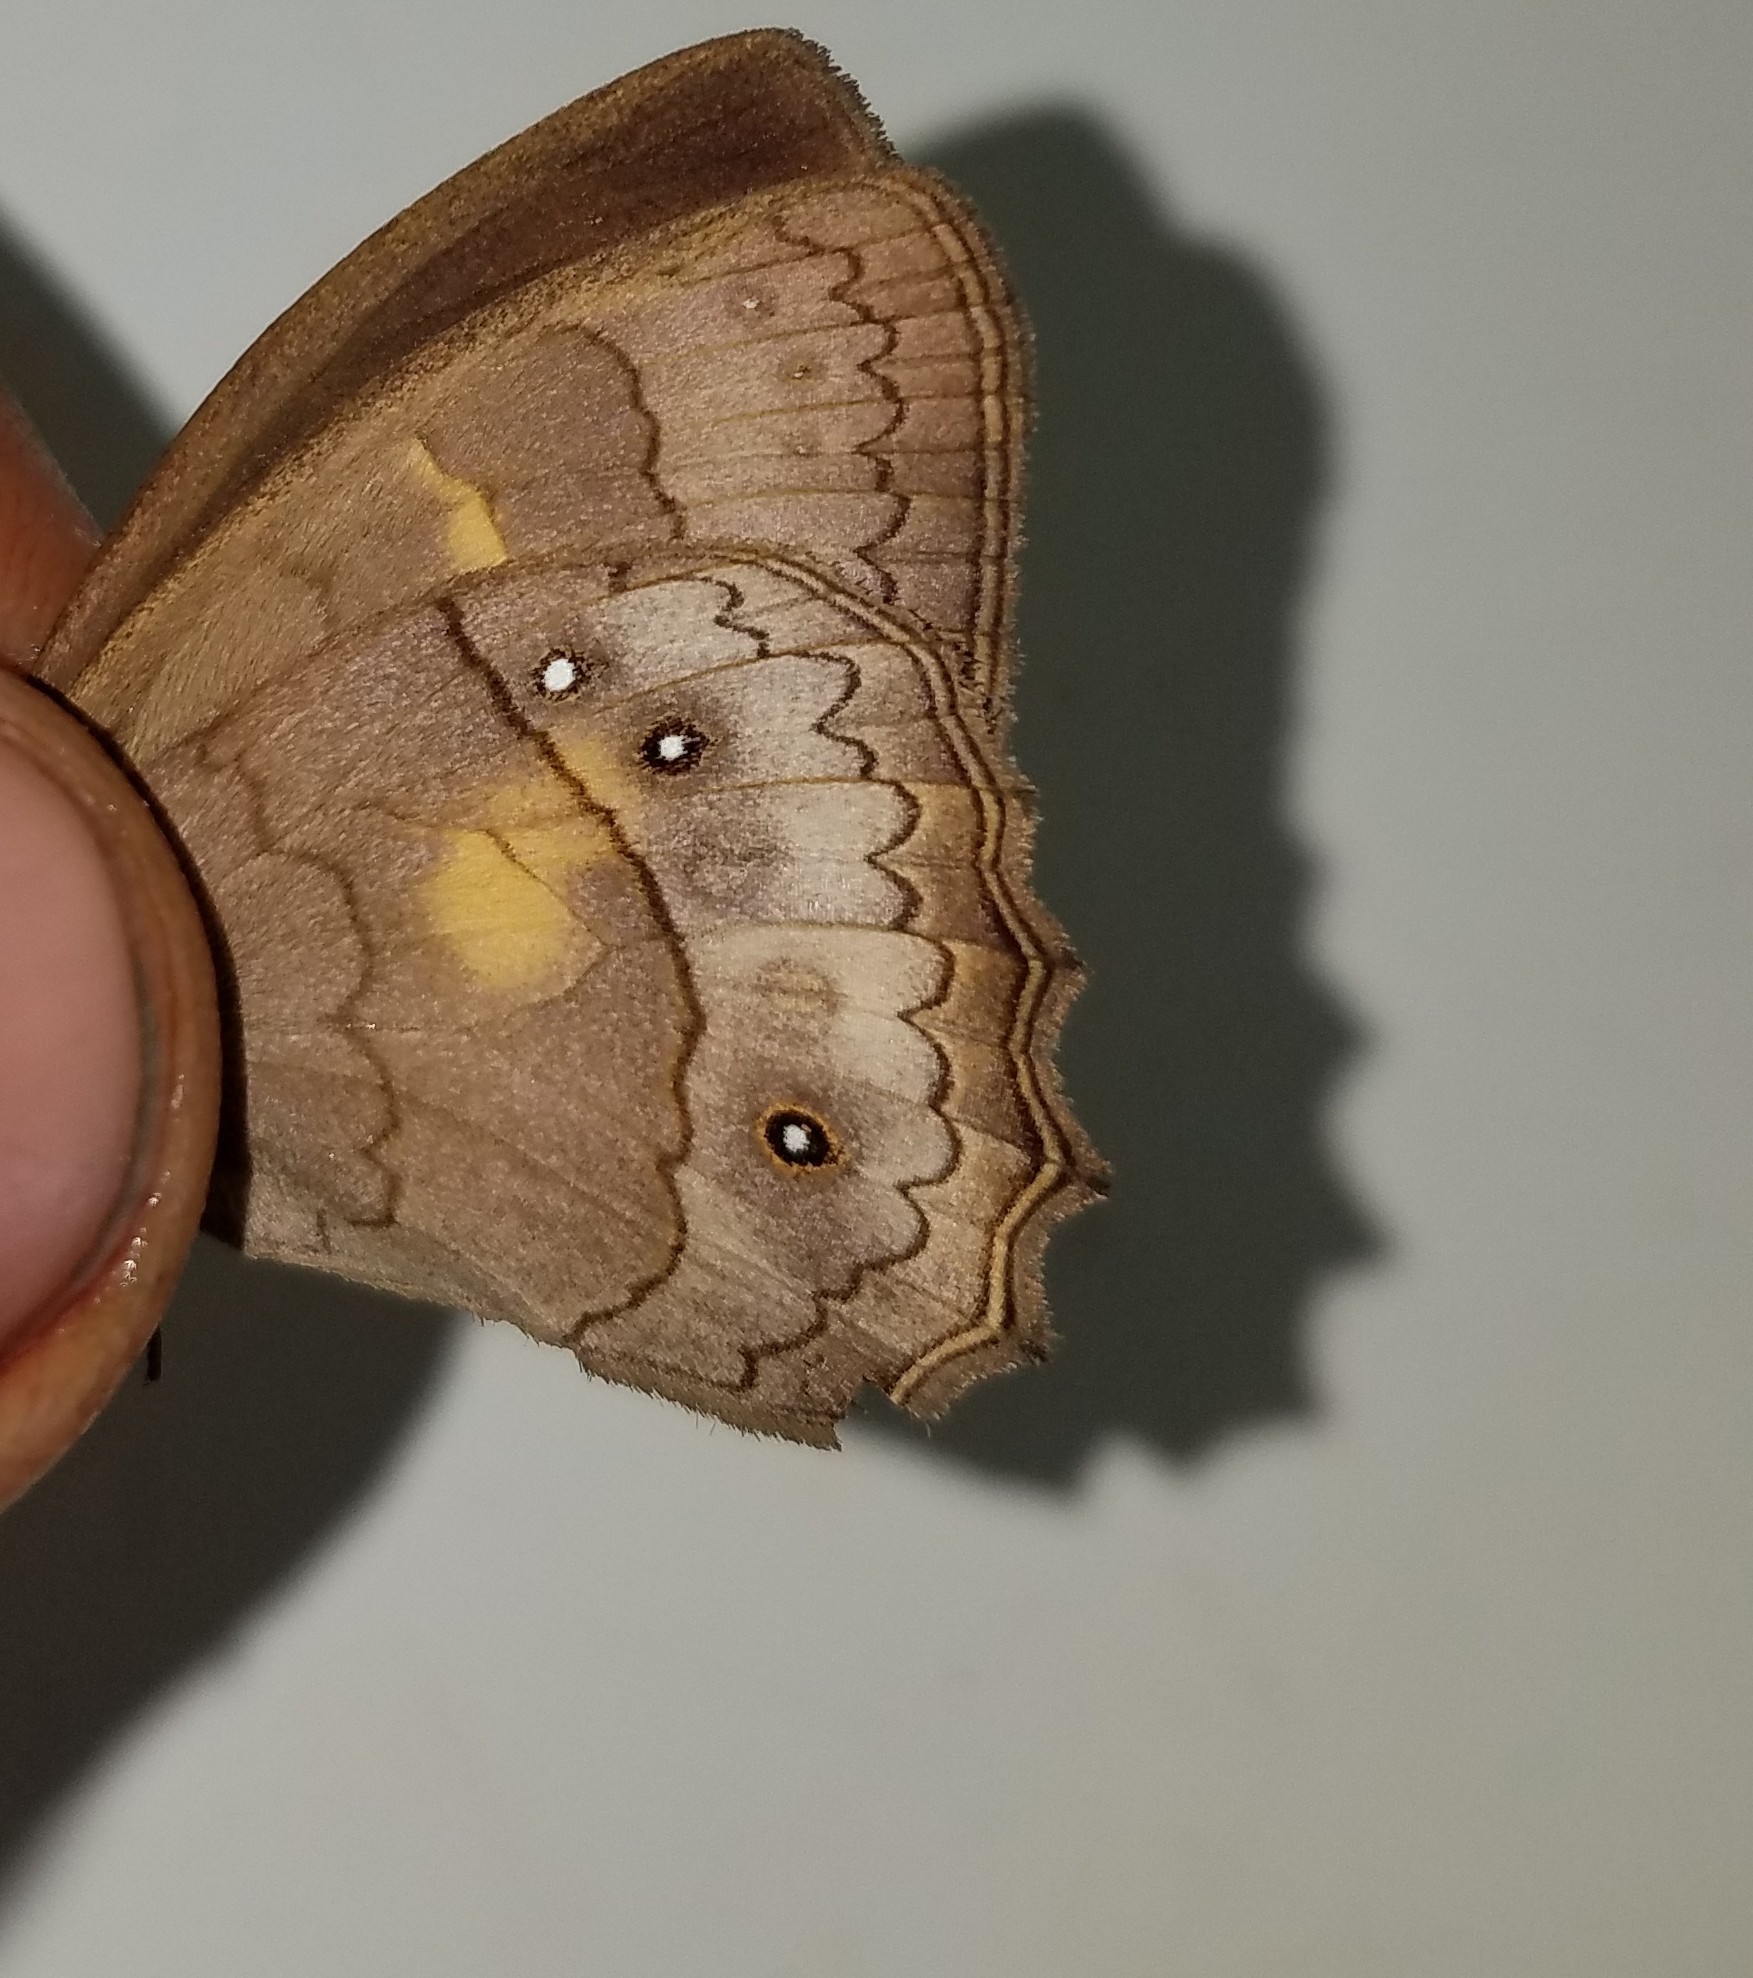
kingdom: Animalia
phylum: Arthropoda
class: Insecta
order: Lepidoptera
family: Nymphalidae
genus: Taygetina
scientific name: Taygetina kerea
